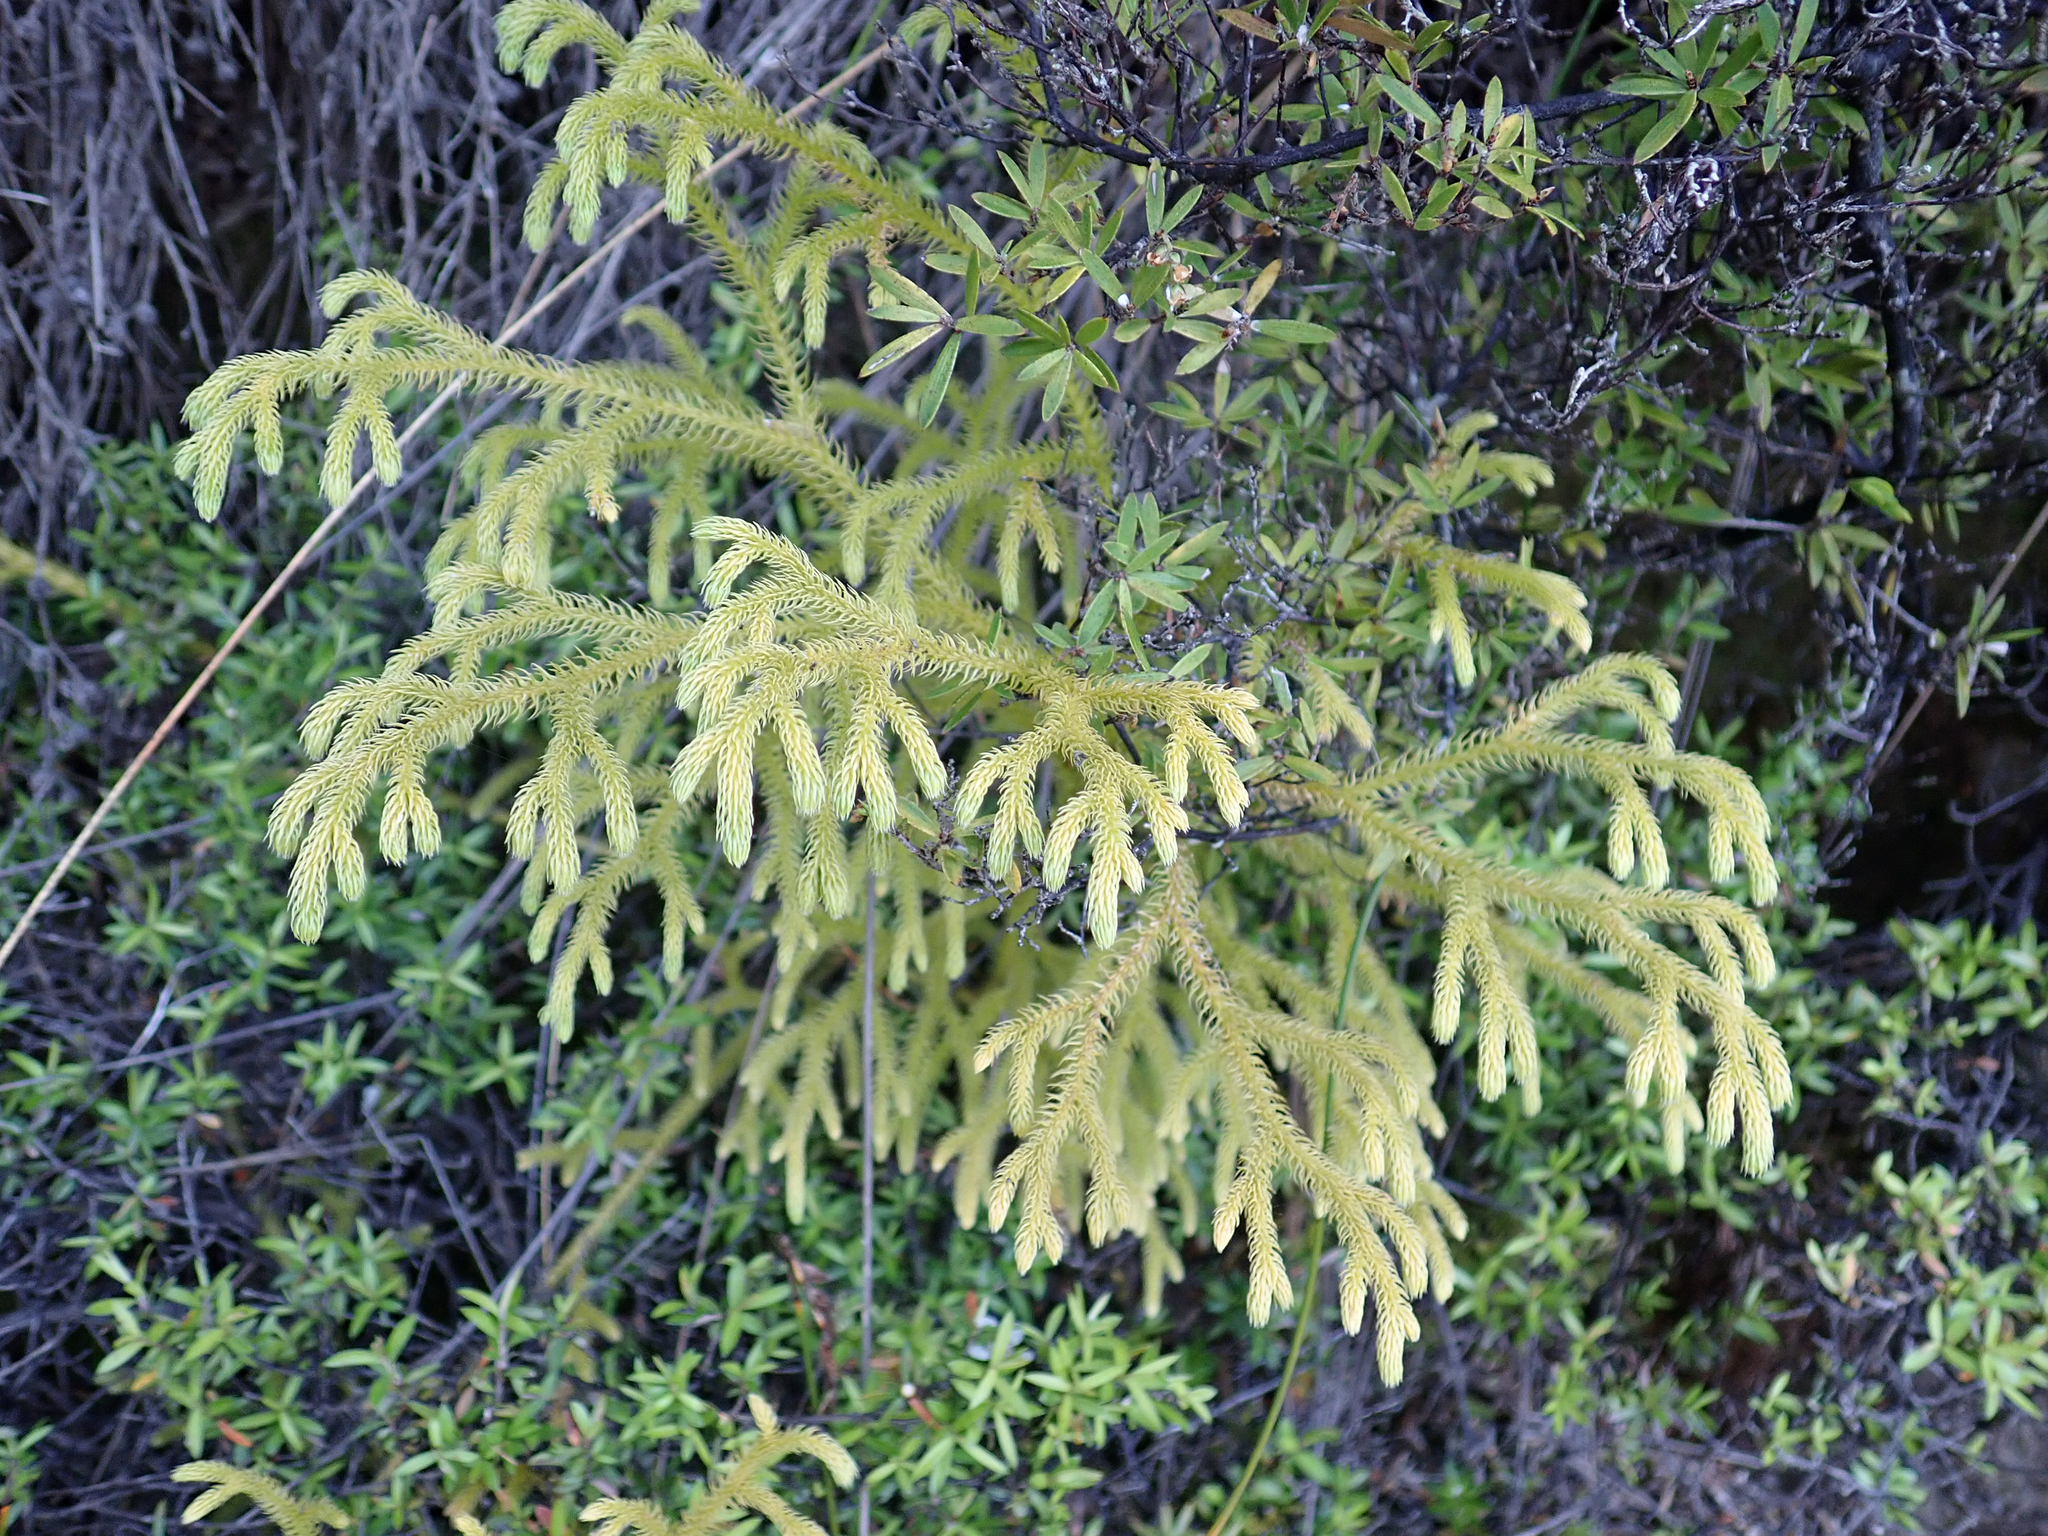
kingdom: Plantae
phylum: Tracheophyta
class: Lycopodiopsida
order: Lycopodiales
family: Lycopodiaceae
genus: Palhinhaea
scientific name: Palhinhaea cernua
